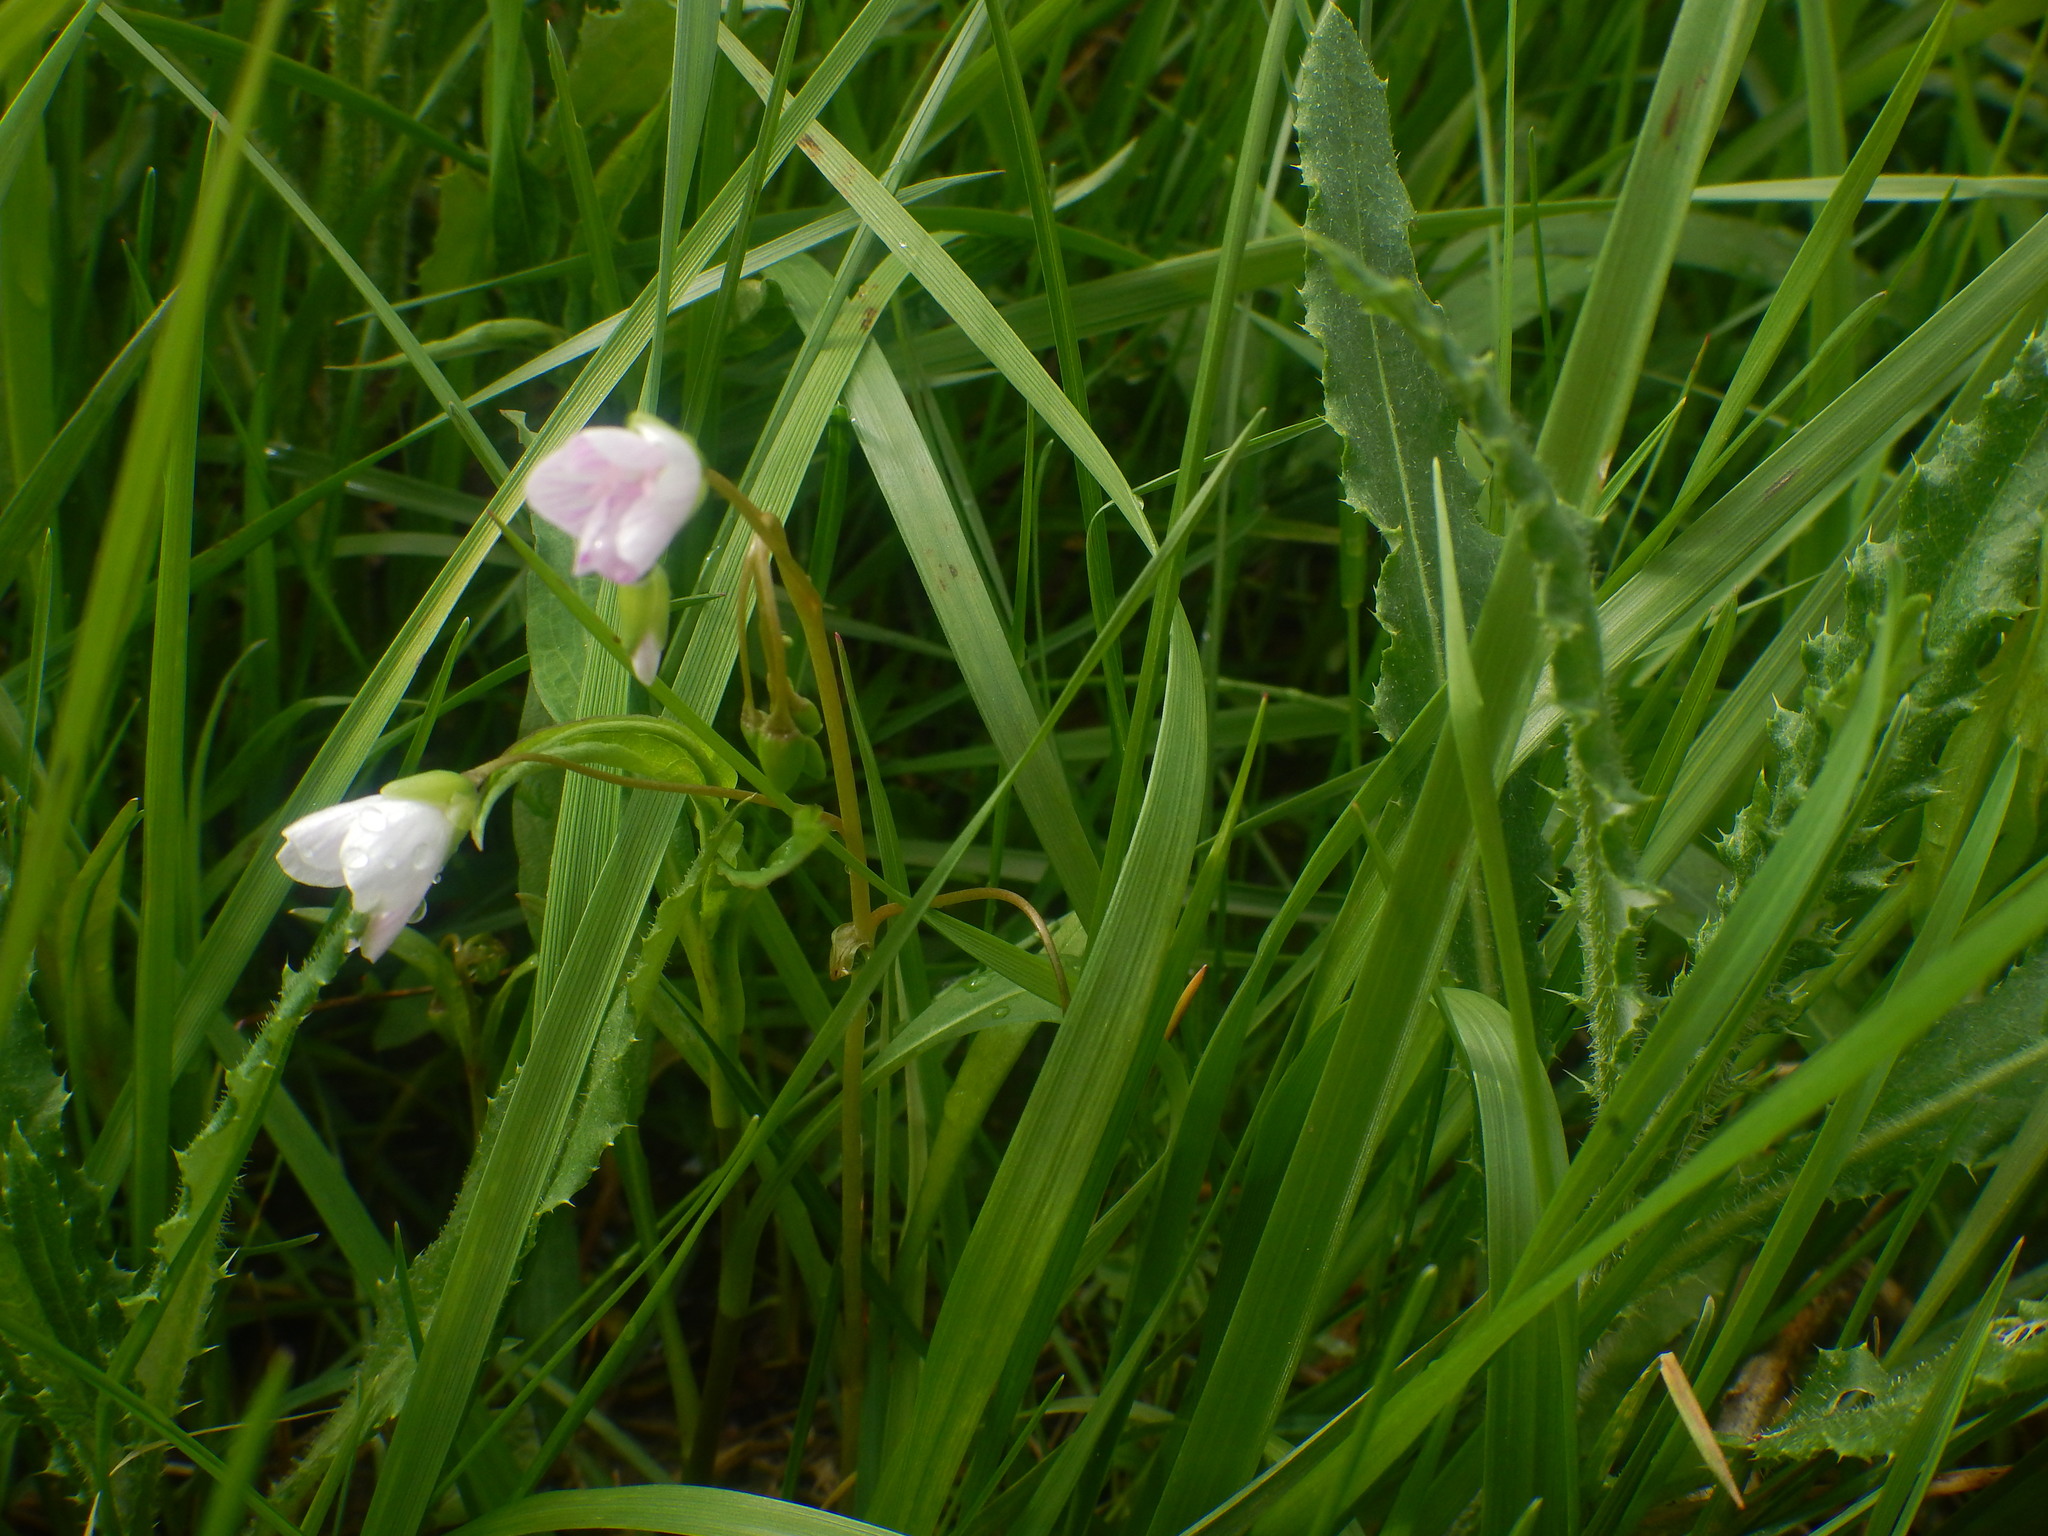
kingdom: Plantae
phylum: Tracheophyta
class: Magnoliopsida
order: Caryophyllales
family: Montiaceae
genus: Claytonia
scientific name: Claytonia virginica
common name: Virginia springbeauty
